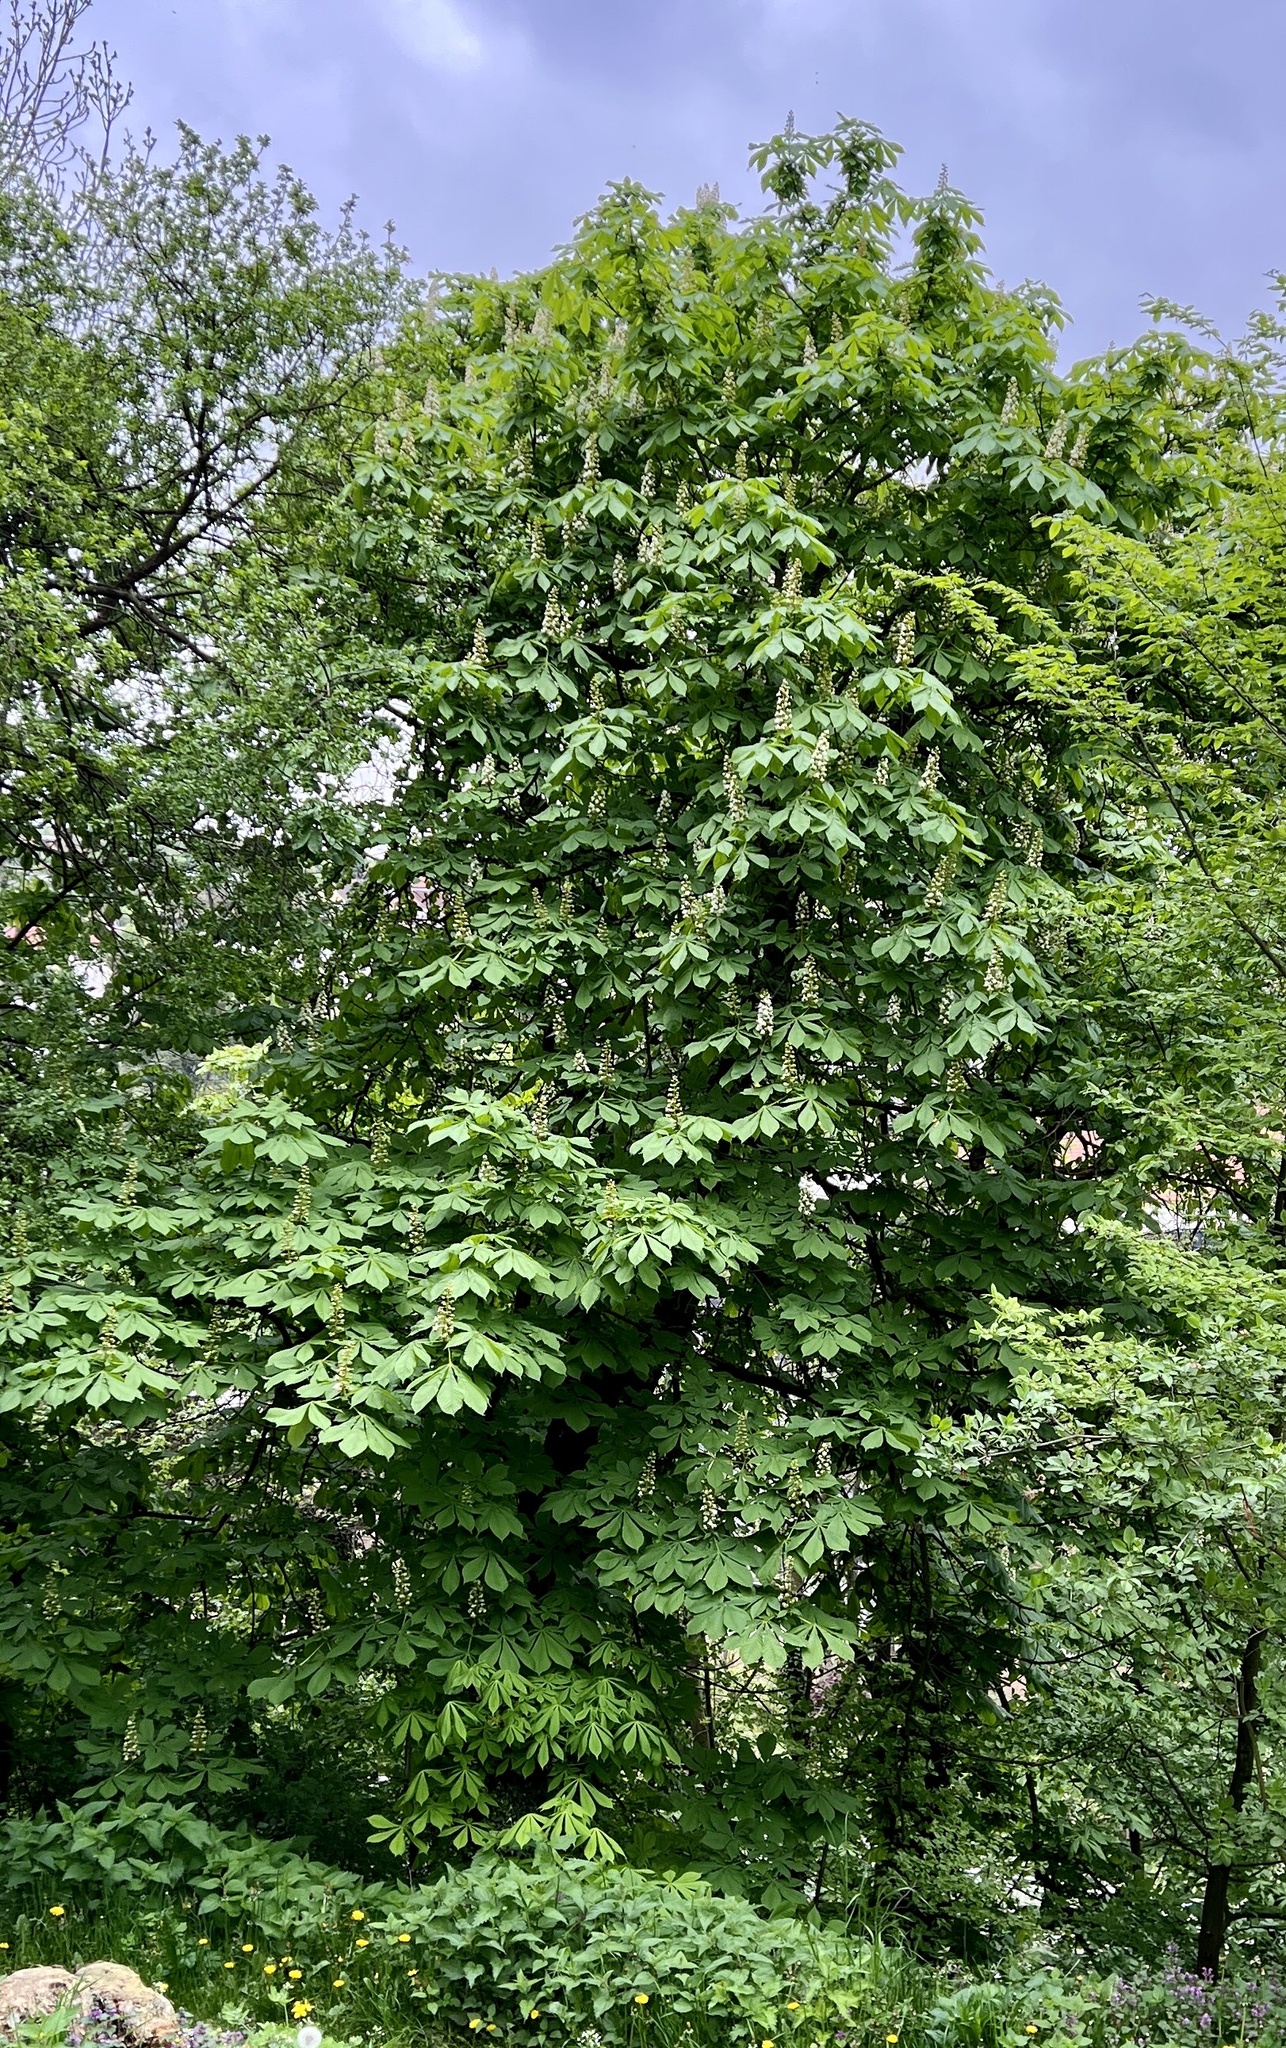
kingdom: Plantae
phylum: Tracheophyta
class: Magnoliopsida
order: Sapindales
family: Sapindaceae
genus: Aesculus
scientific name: Aesculus hippocastanum
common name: Horse-chestnut
